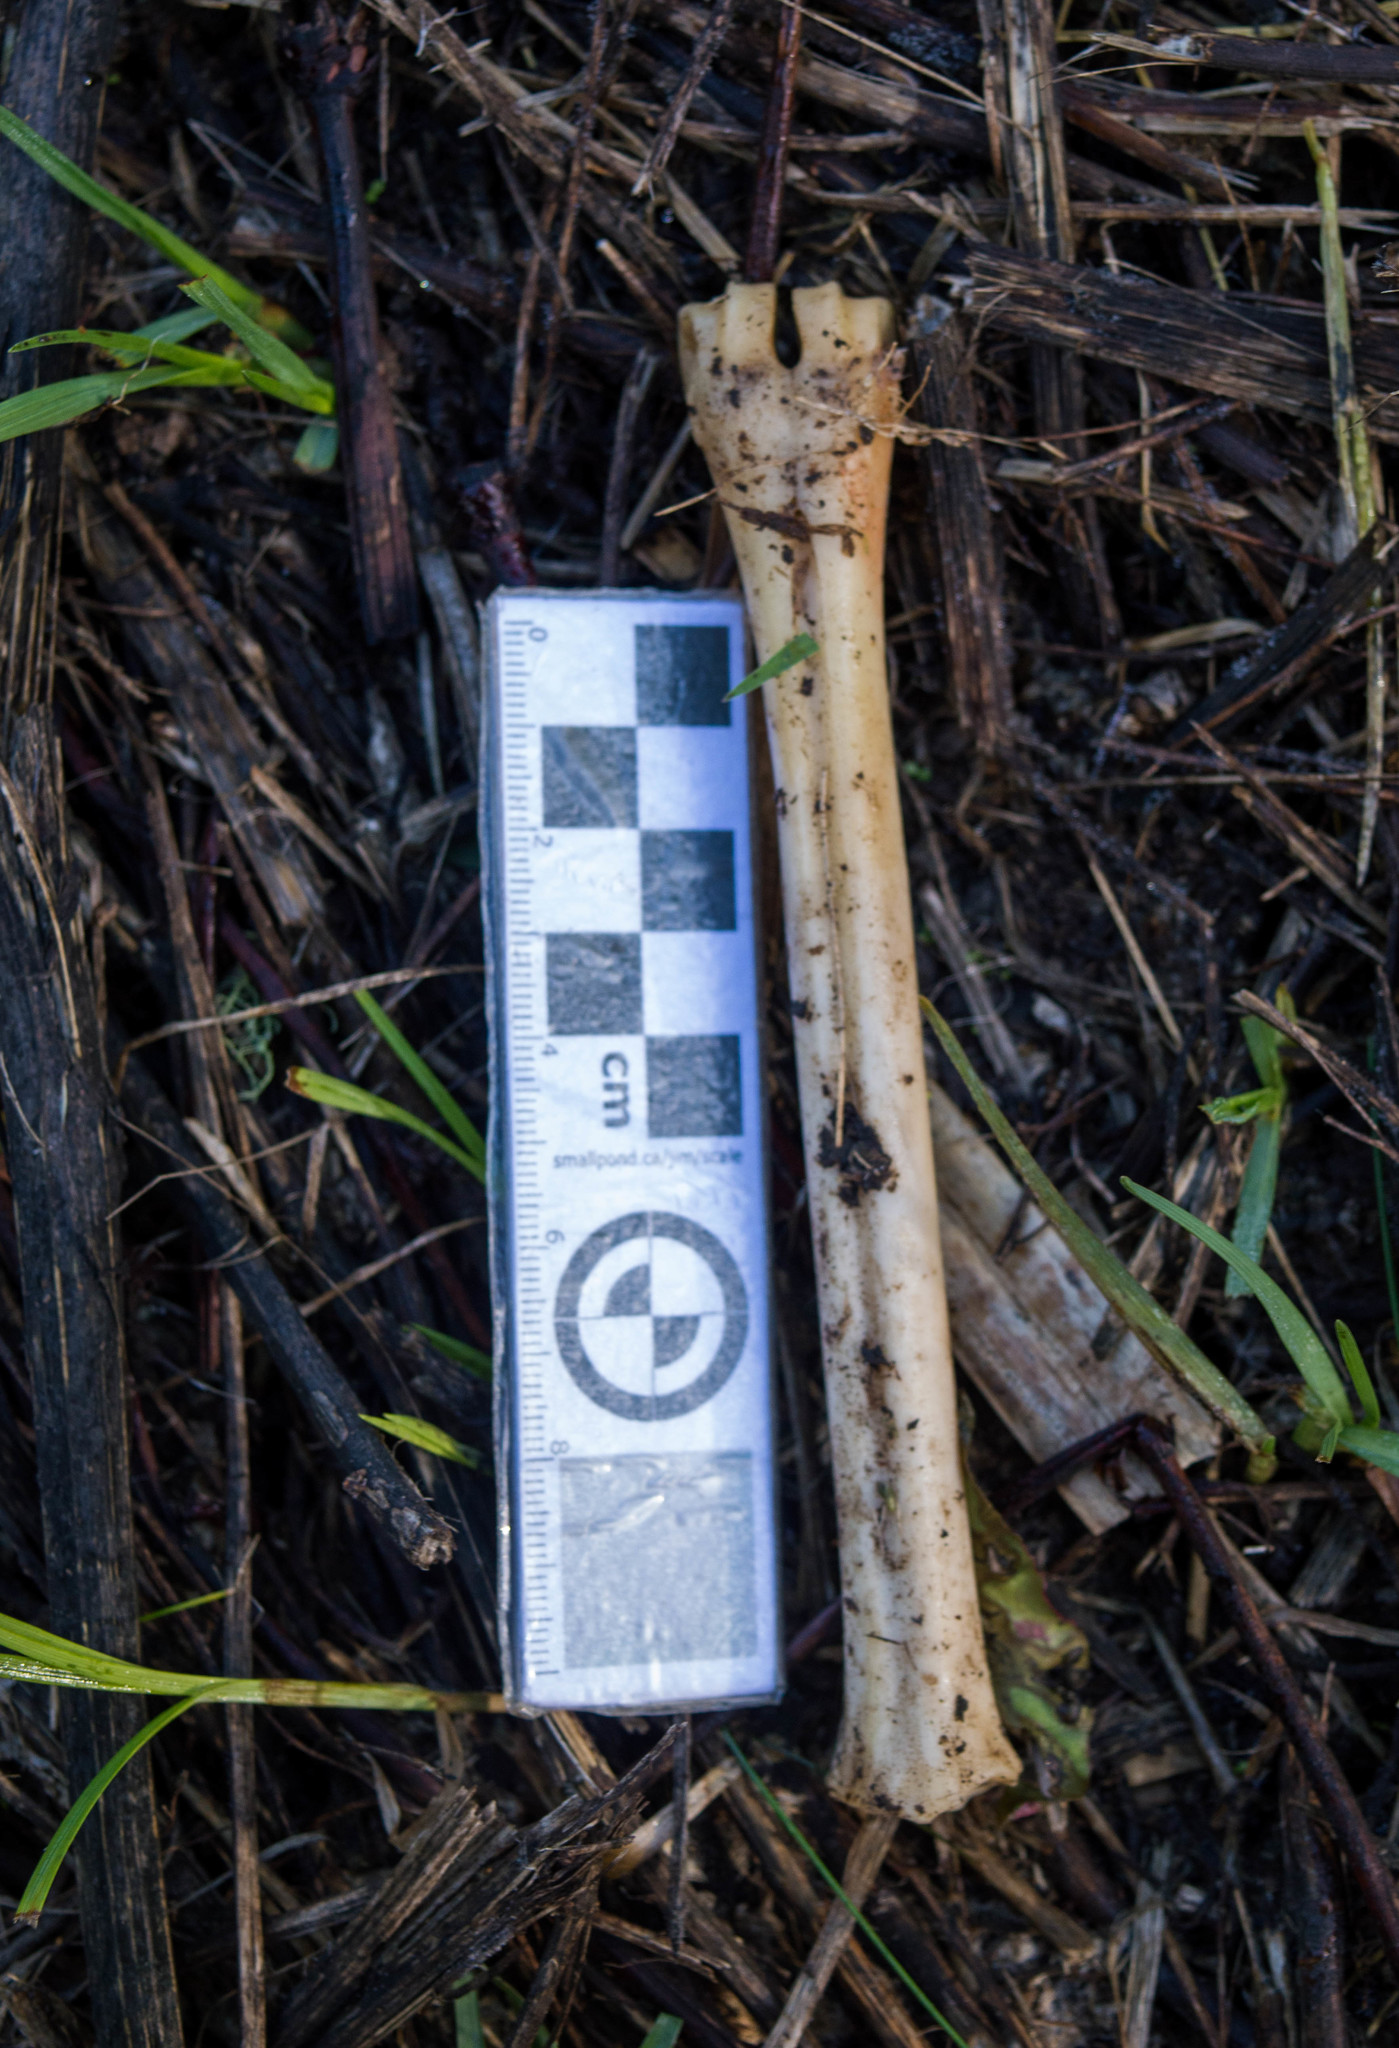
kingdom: Animalia
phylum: Chordata
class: Mammalia
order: Artiodactyla
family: Cervidae
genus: Mazama
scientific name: Mazama gouazoubira
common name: Gray brocket
